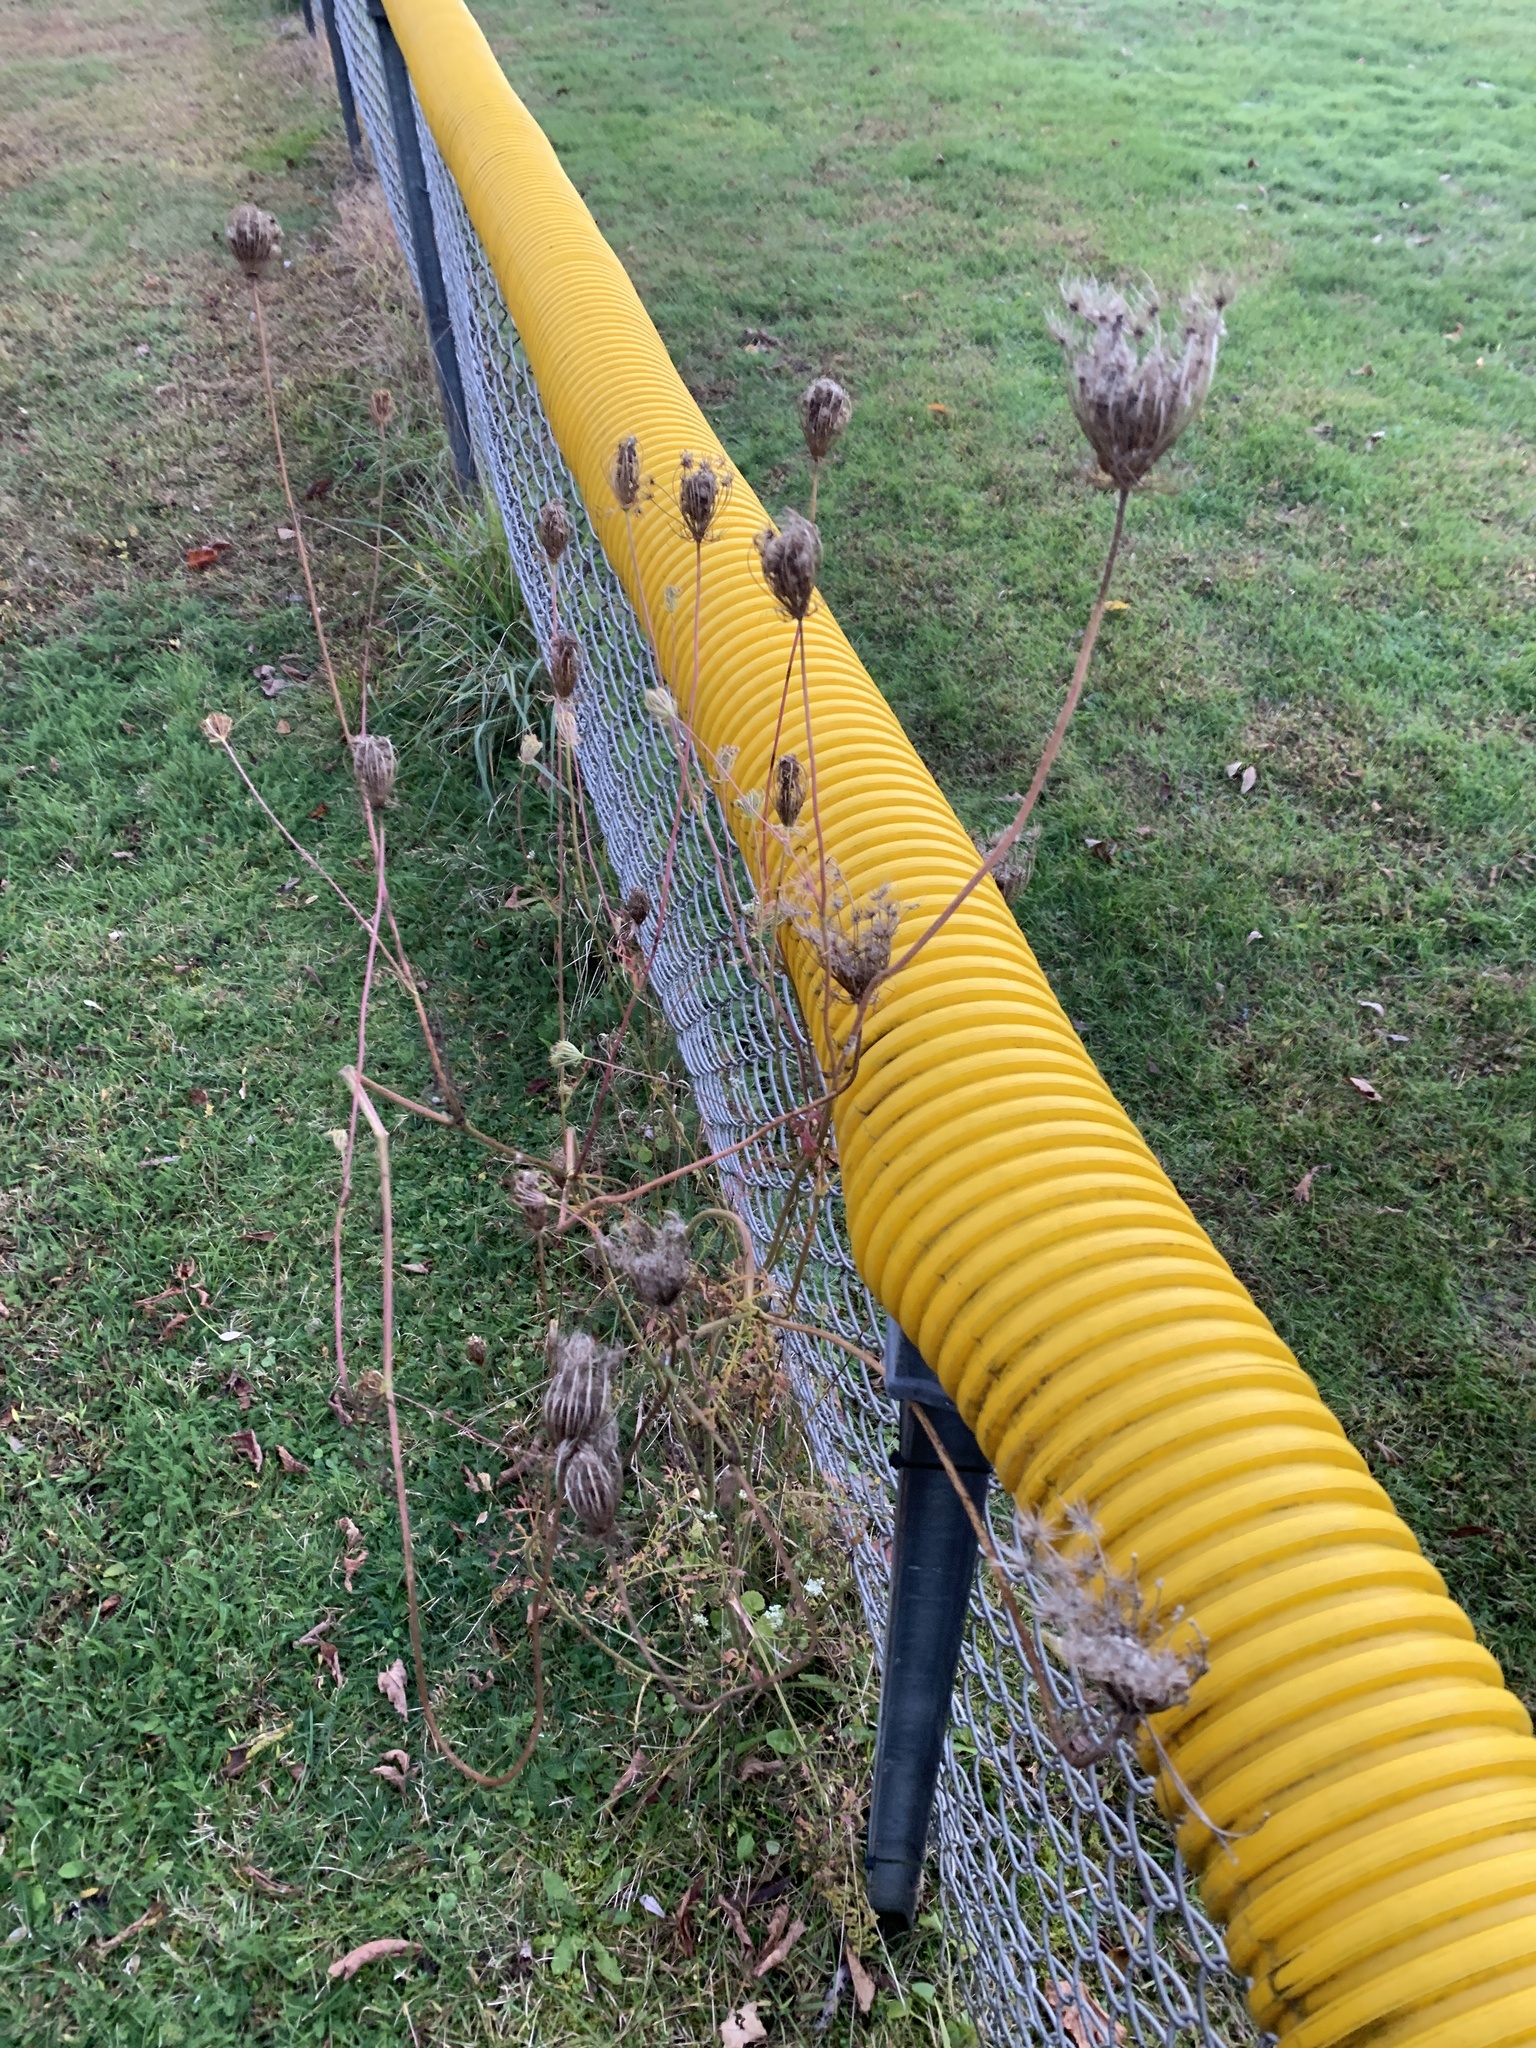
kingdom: Plantae
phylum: Tracheophyta
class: Magnoliopsida
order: Apiales
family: Apiaceae
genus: Daucus
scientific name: Daucus carota
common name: Wild carrot
